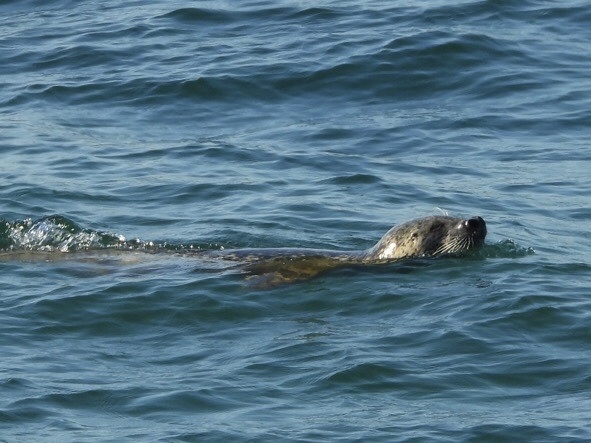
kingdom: Animalia
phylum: Chordata
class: Mammalia
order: Carnivora
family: Phocidae
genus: Phoca
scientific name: Phoca largha
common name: Spotted seal
